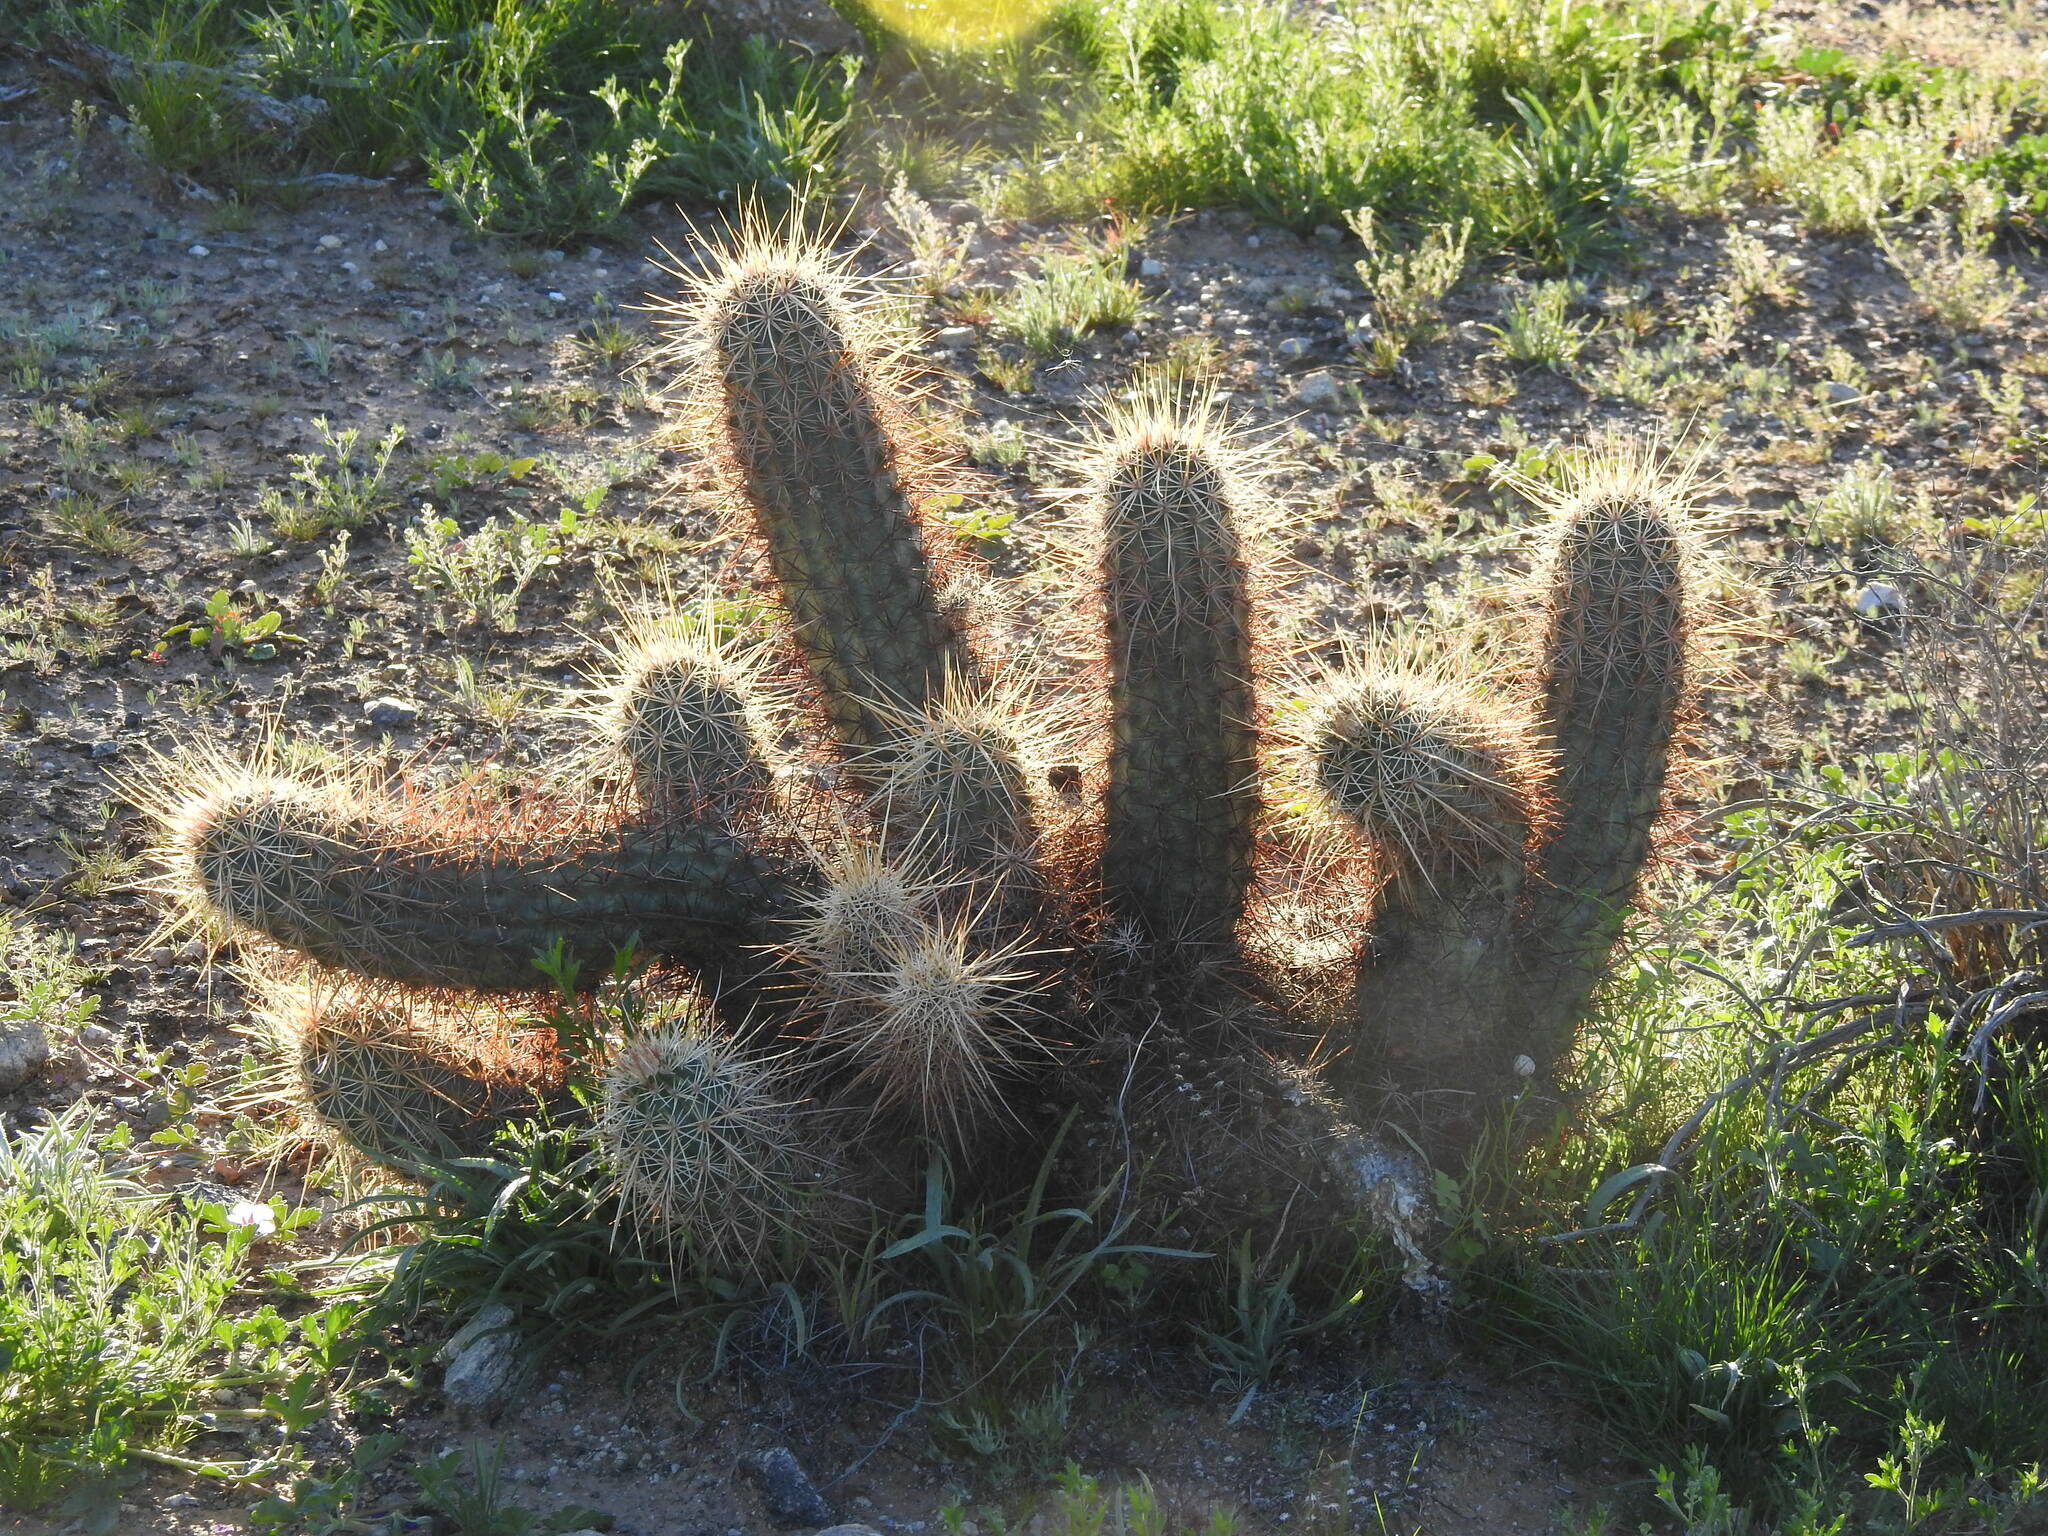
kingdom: Plantae
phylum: Tracheophyta
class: Magnoliopsida
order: Caryophyllales
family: Cactaceae
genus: Echinocereus
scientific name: Echinocereus engelmannii
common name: Engelmann's hedgehog cactus
